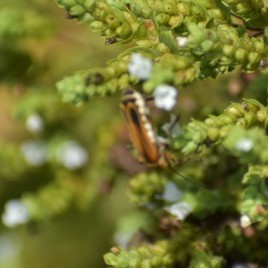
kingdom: Animalia
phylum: Arthropoda
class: Insecta
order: Coleoptera
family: Cantharidae
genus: Chauliognathus
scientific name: Chauliognathus marginatus
